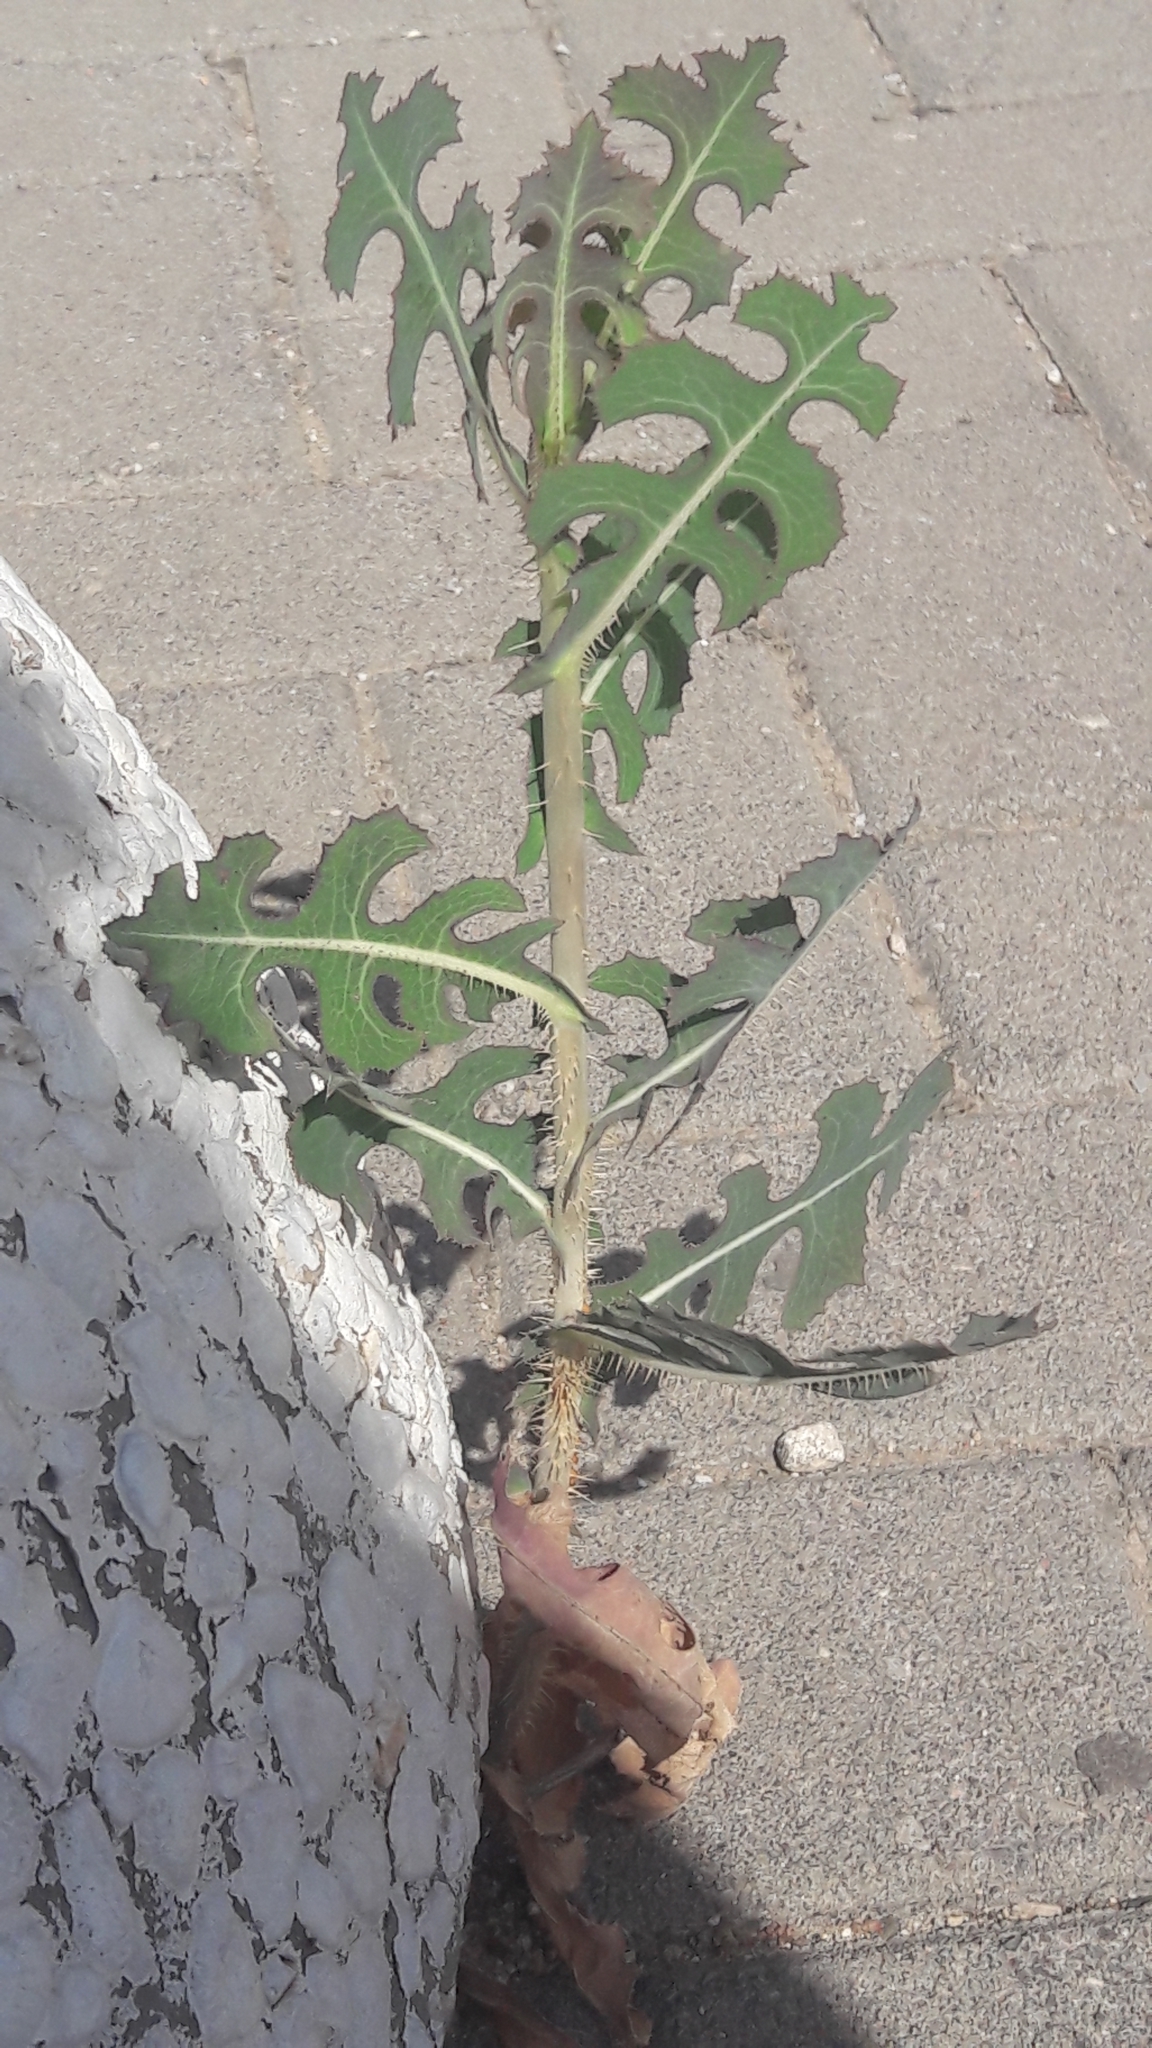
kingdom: Plantae
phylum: Tracheophyta
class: Magnoliopsida
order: Asterales
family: Asteraceae
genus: Lactuca
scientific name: Lactuca serriola
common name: Prickly lettuce
